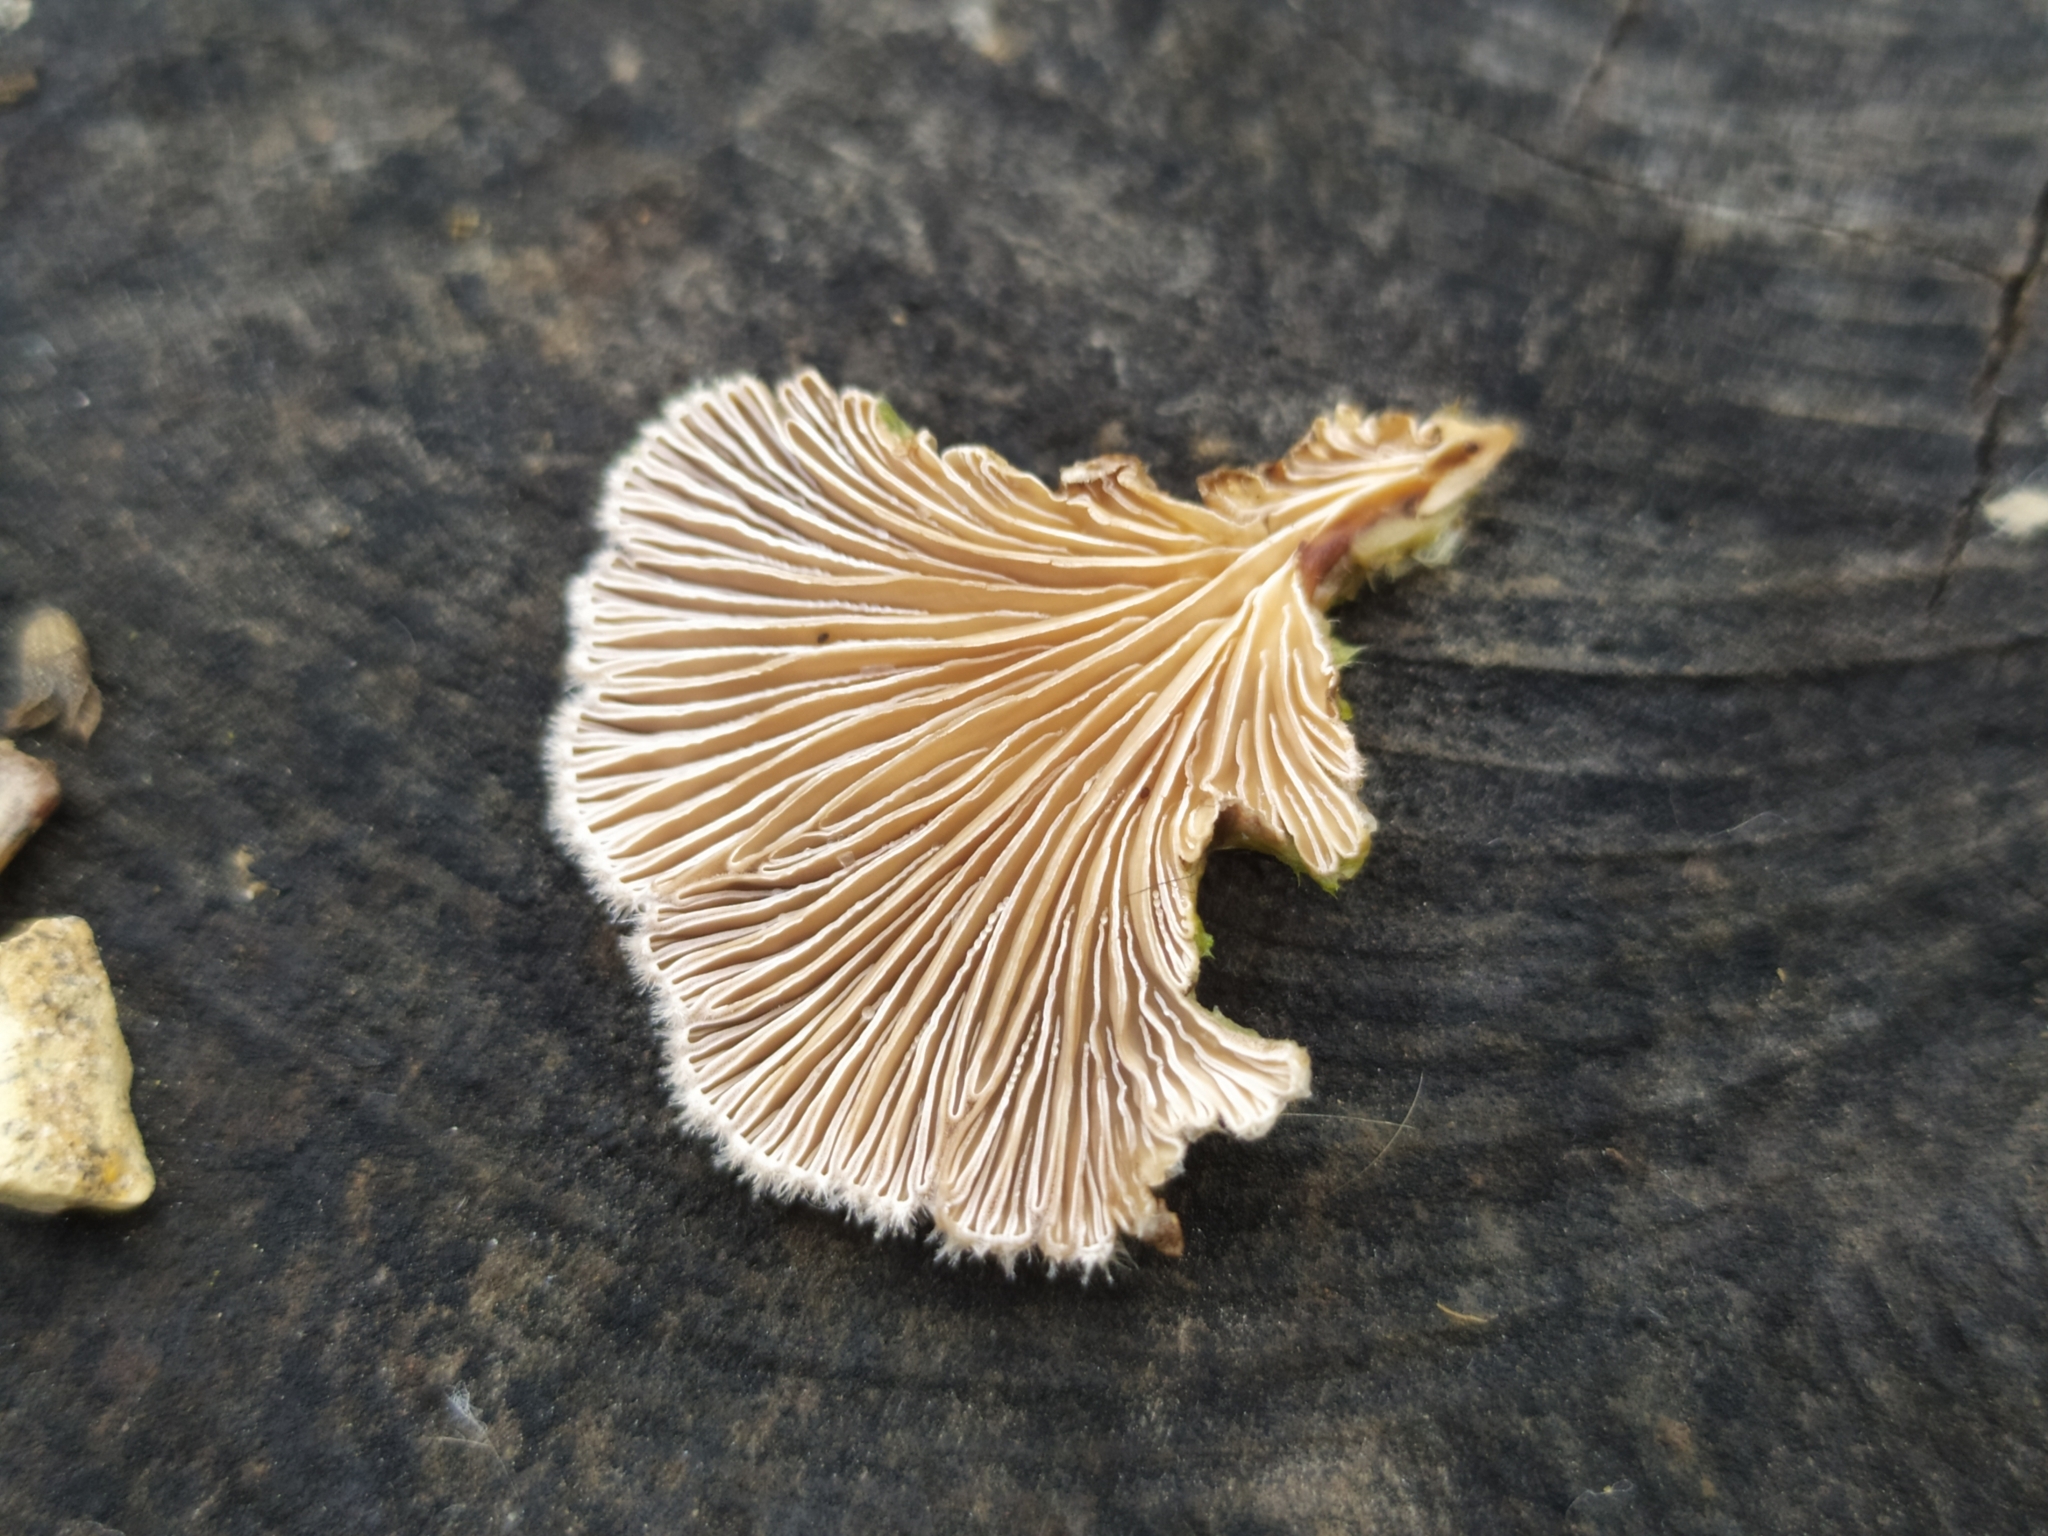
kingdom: Fungi
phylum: Basidiomycota
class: Agaricomycetes
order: Agaricales
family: Schizophyllaceae
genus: Schizophyllum
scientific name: Schizophyllum commune
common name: Common porecrust
